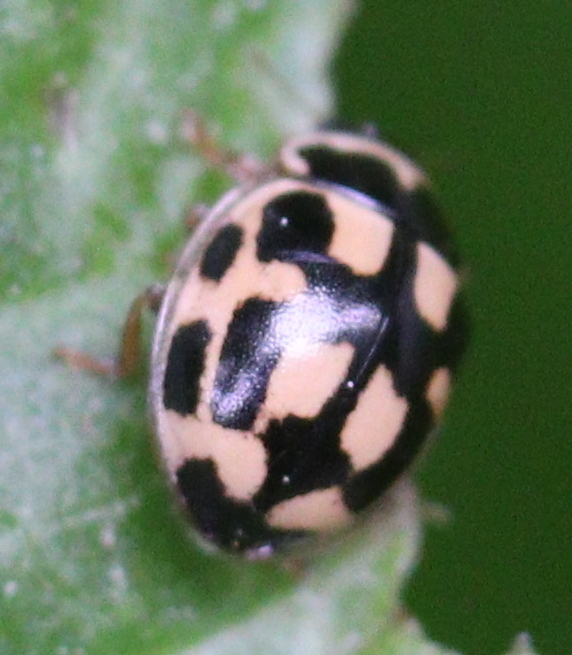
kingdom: Animalia
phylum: Arthropoda
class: Insecta
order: Coleoptera
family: Coccinellidae
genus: Propylaea
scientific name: Propylaea quatuordecimpunctata
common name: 14-spotted ladybird beetle
